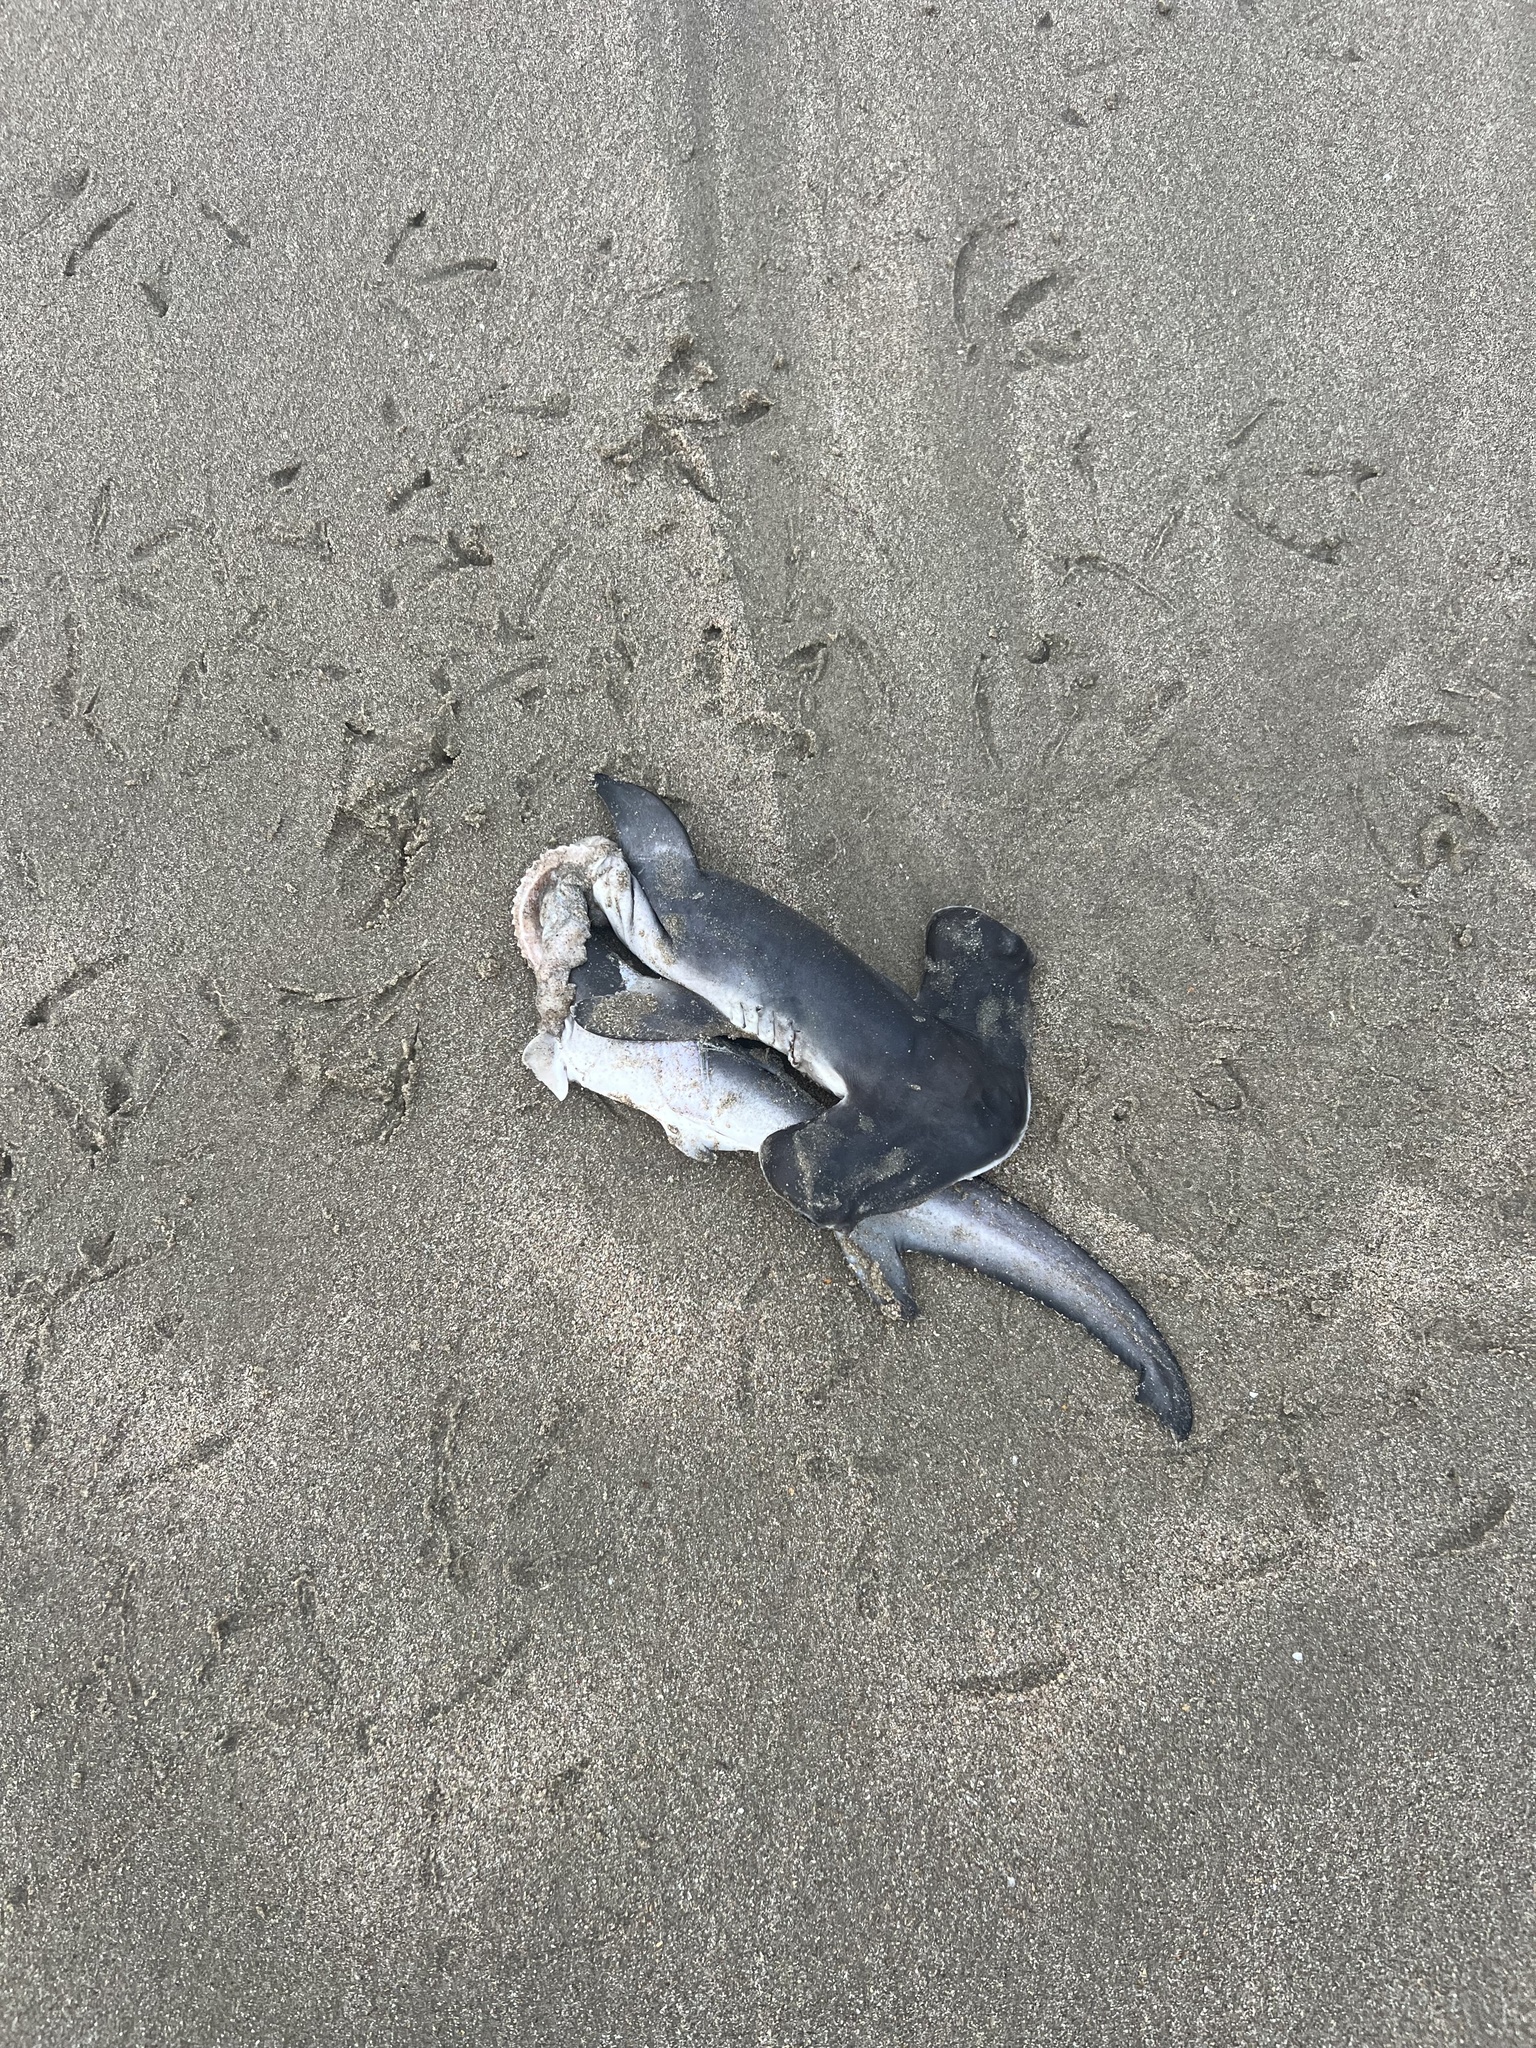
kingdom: Animalia
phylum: Chordata
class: Elasmobranchii
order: Carcharhiniformes
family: Sphyrnidae
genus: Sphyrna
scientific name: Sphyrna zygaena
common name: Smooth hammerhead
